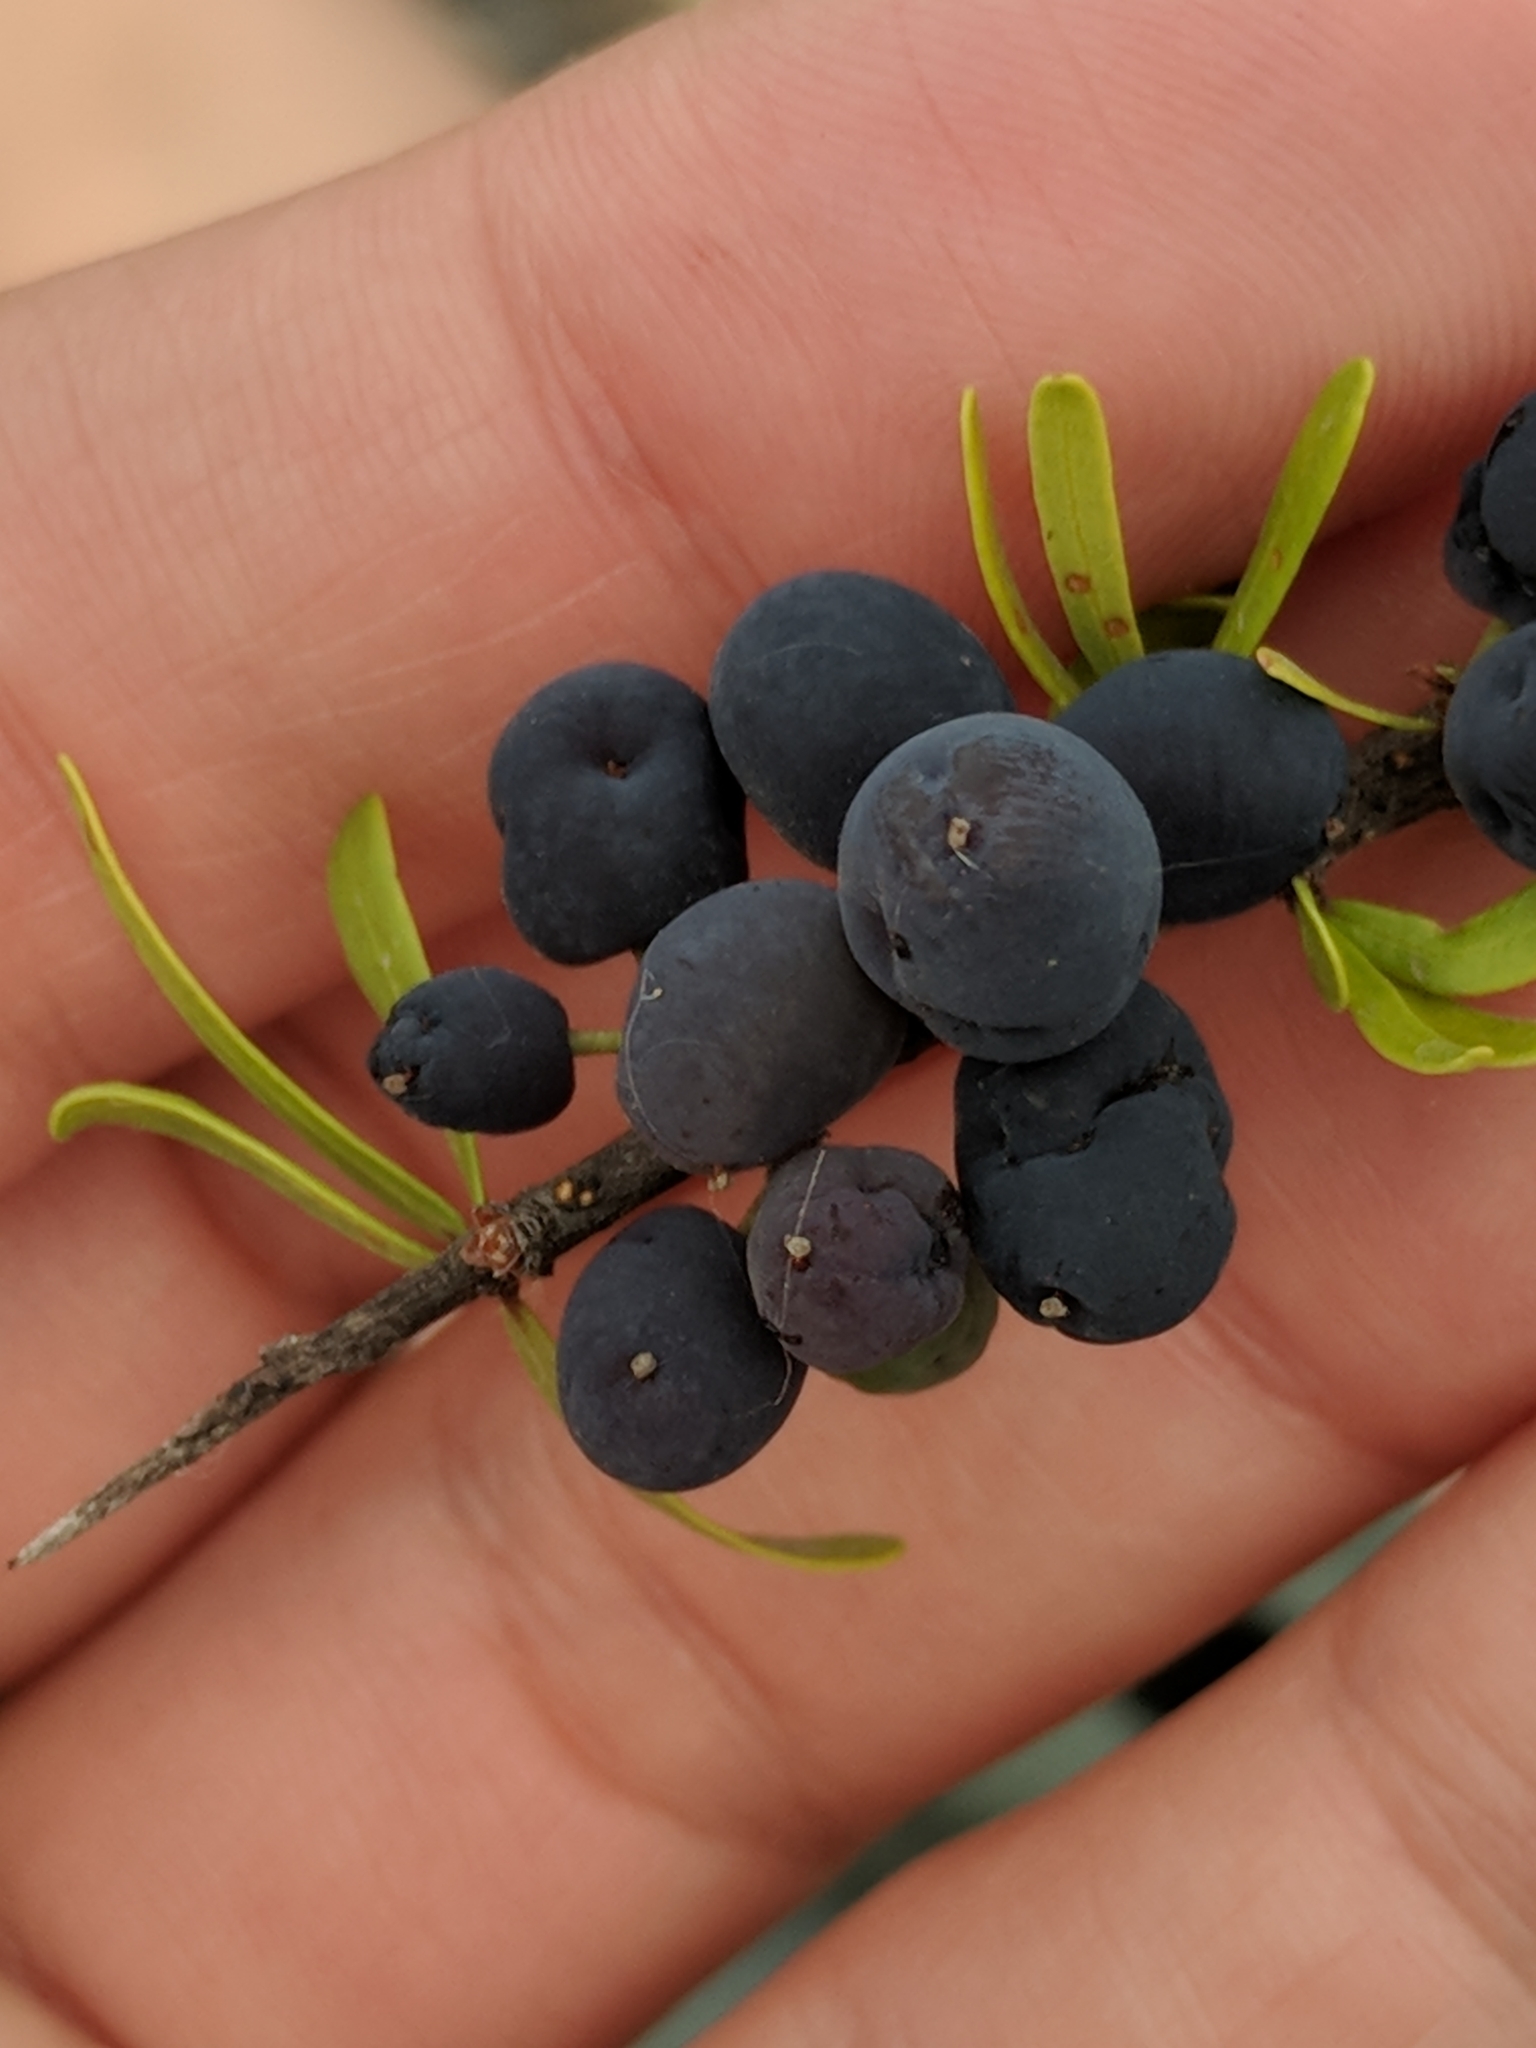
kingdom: Plantae
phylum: Tracheophyta
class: Magnoliopsida
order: Lamiales
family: Oleaceae
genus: Forestiera
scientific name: Forestiera angustifolia
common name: Elbowbush
